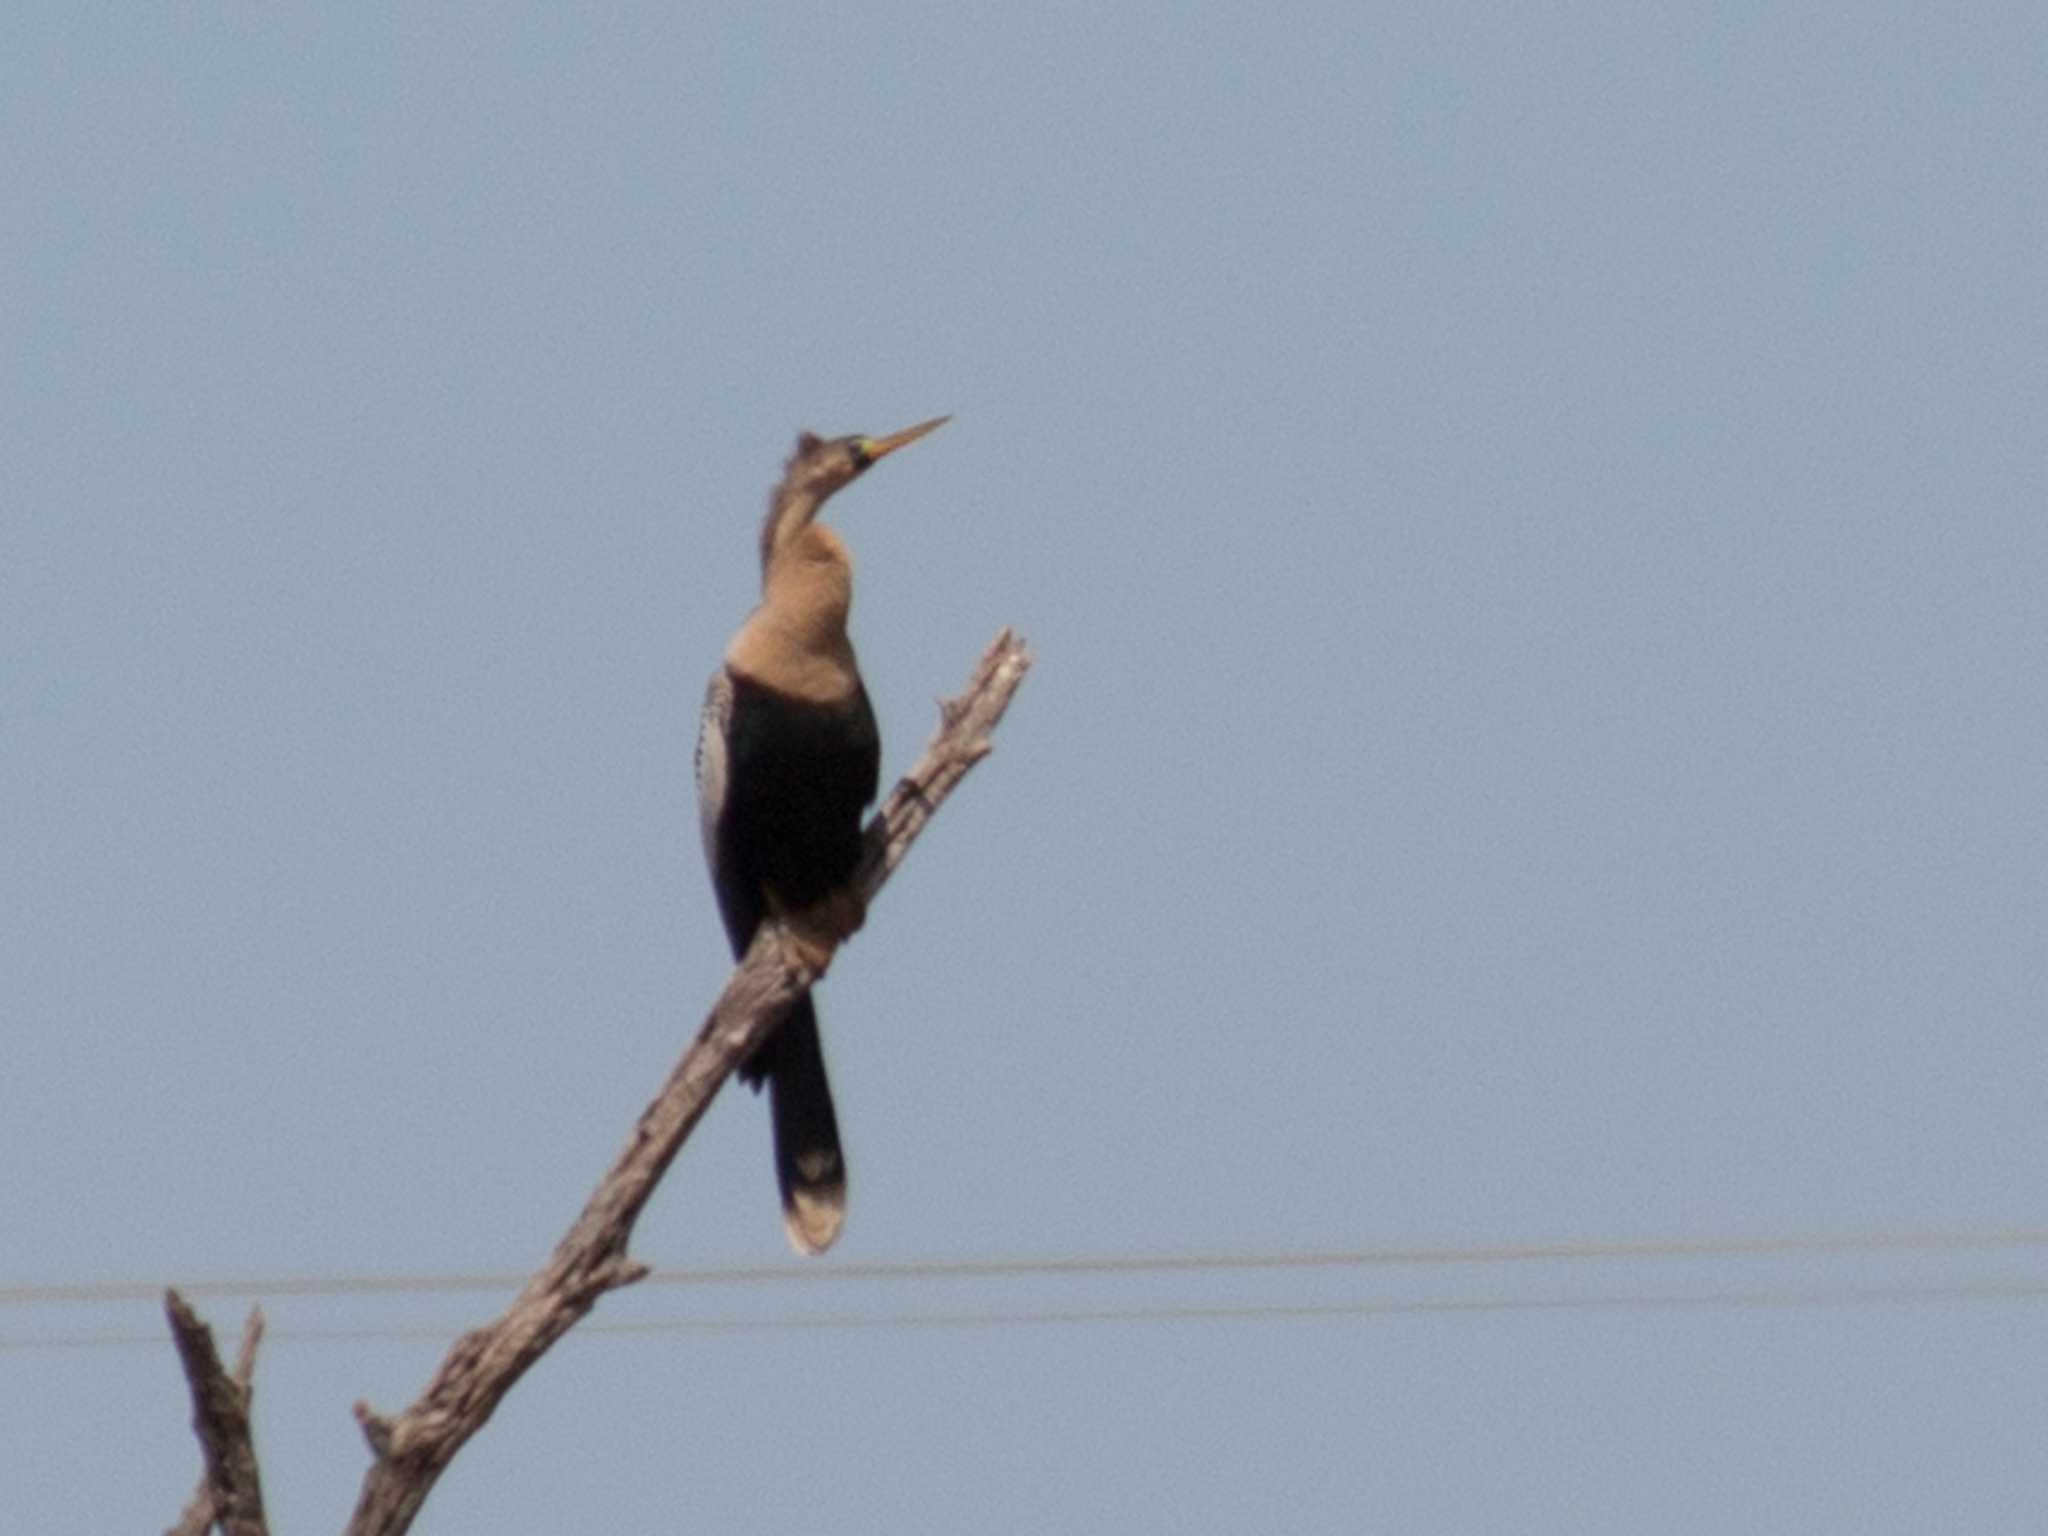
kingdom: Animalia
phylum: Chordata
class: Aves
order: Suliformes
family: Anhingidae
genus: Anhinga
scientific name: Anhinga anhinga
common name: Anhinga
